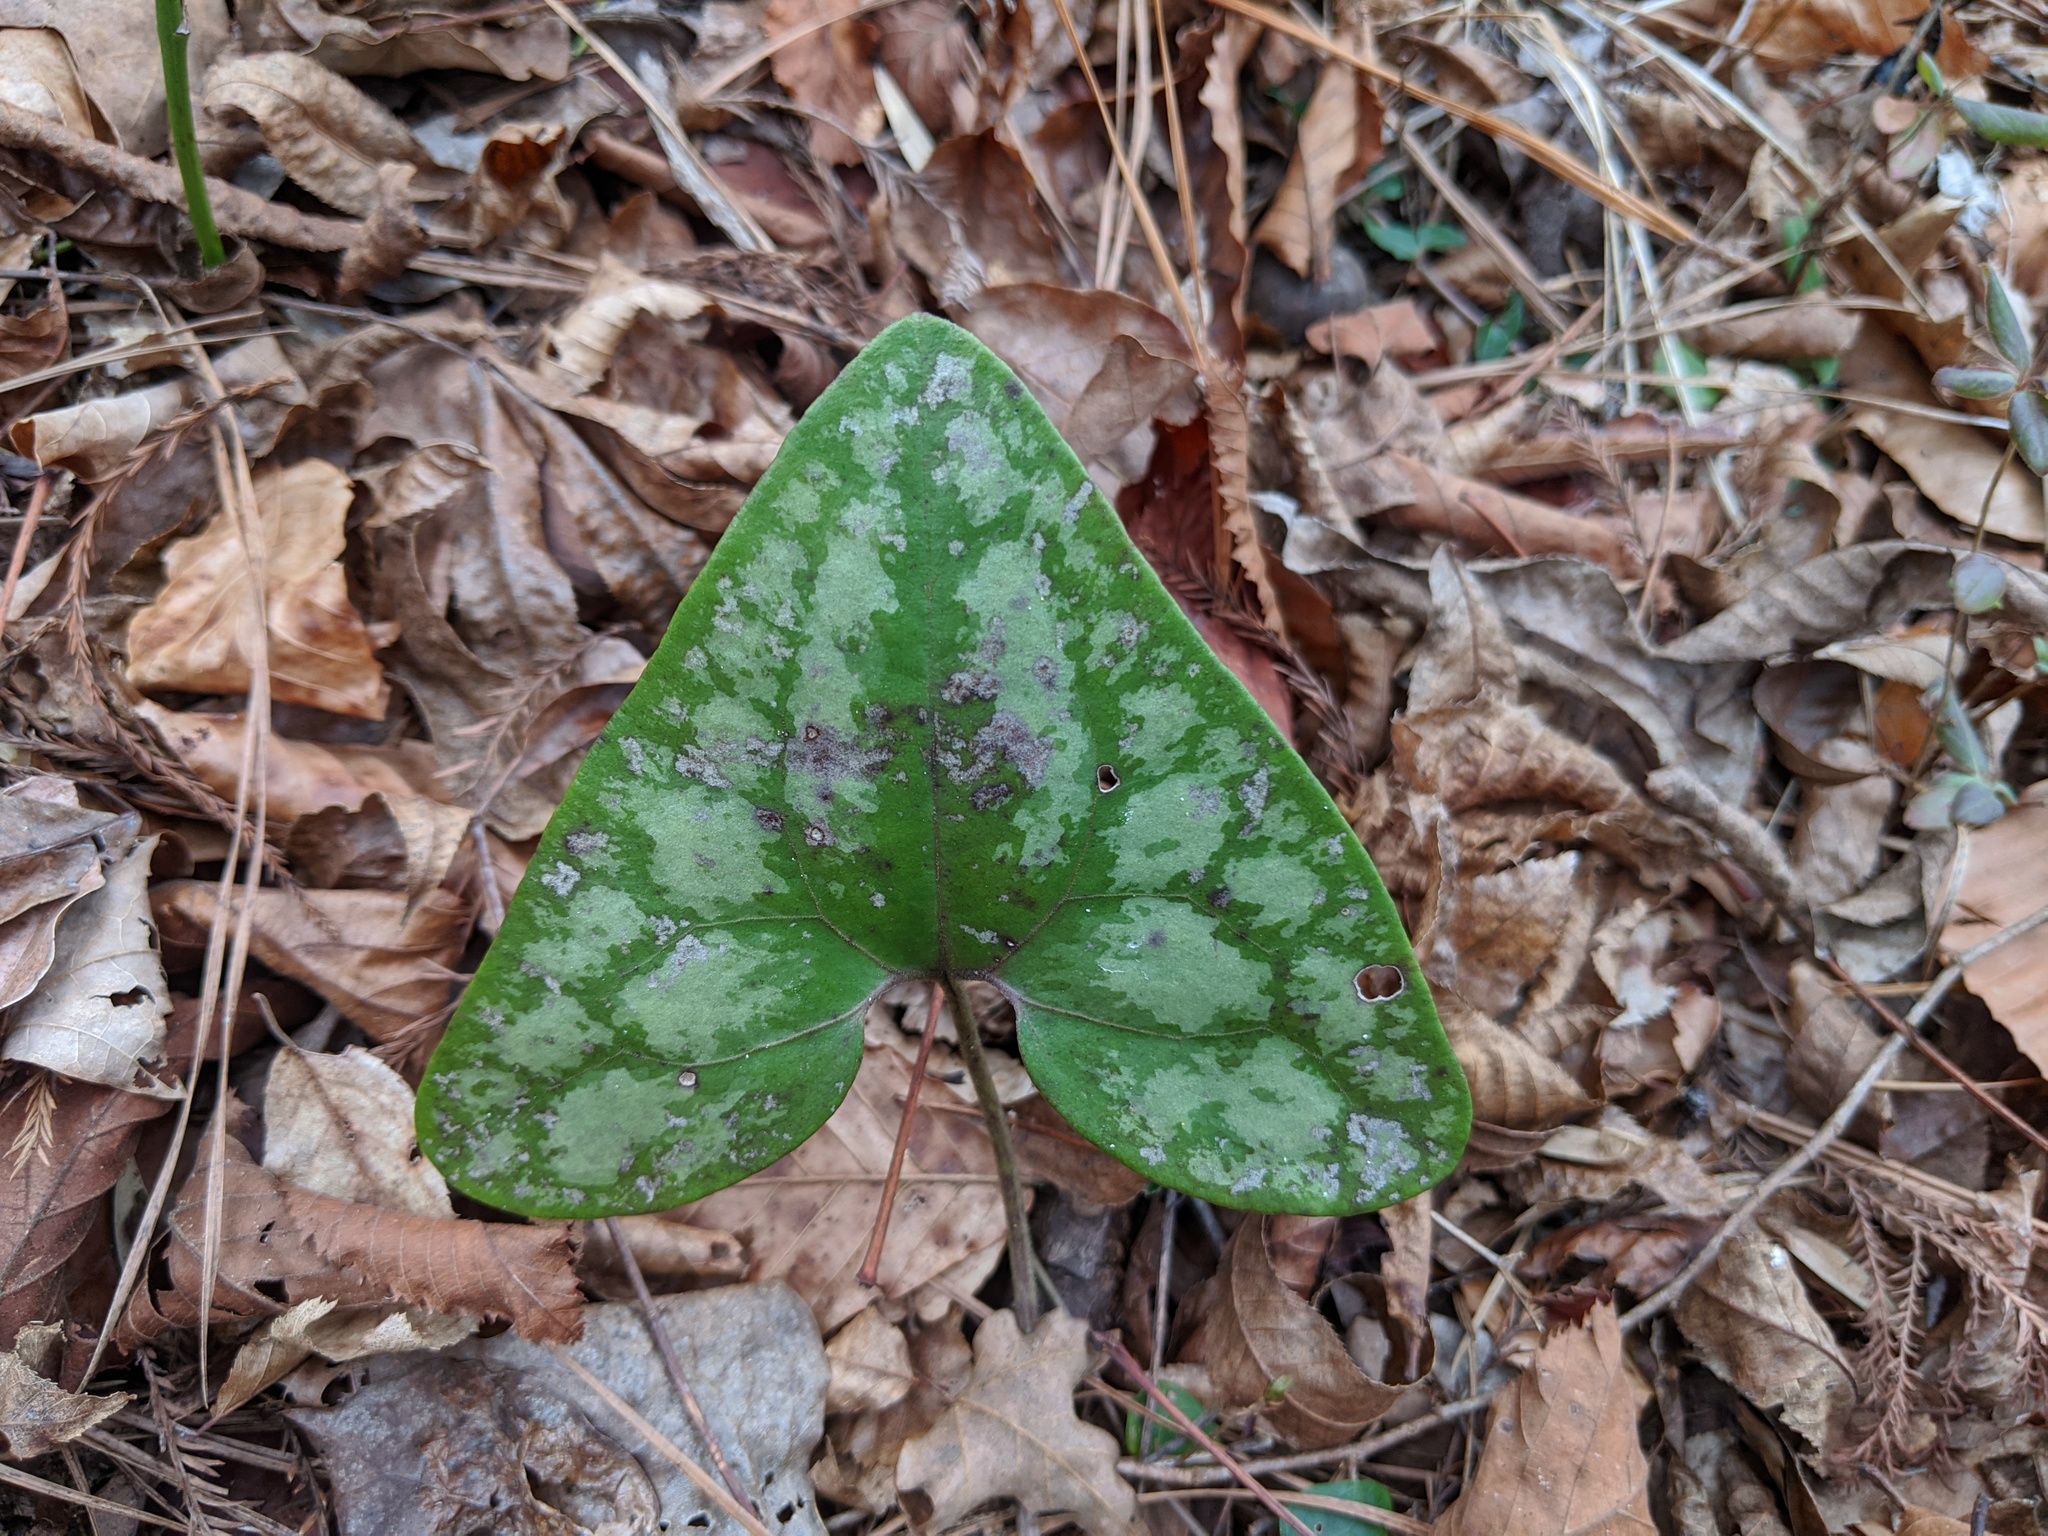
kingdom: Plantae
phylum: Tracheophyta
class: Magnoliopsida
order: Piperales
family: Aristolochiaceae
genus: Hexastylis
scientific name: Hexastylis arifolia
